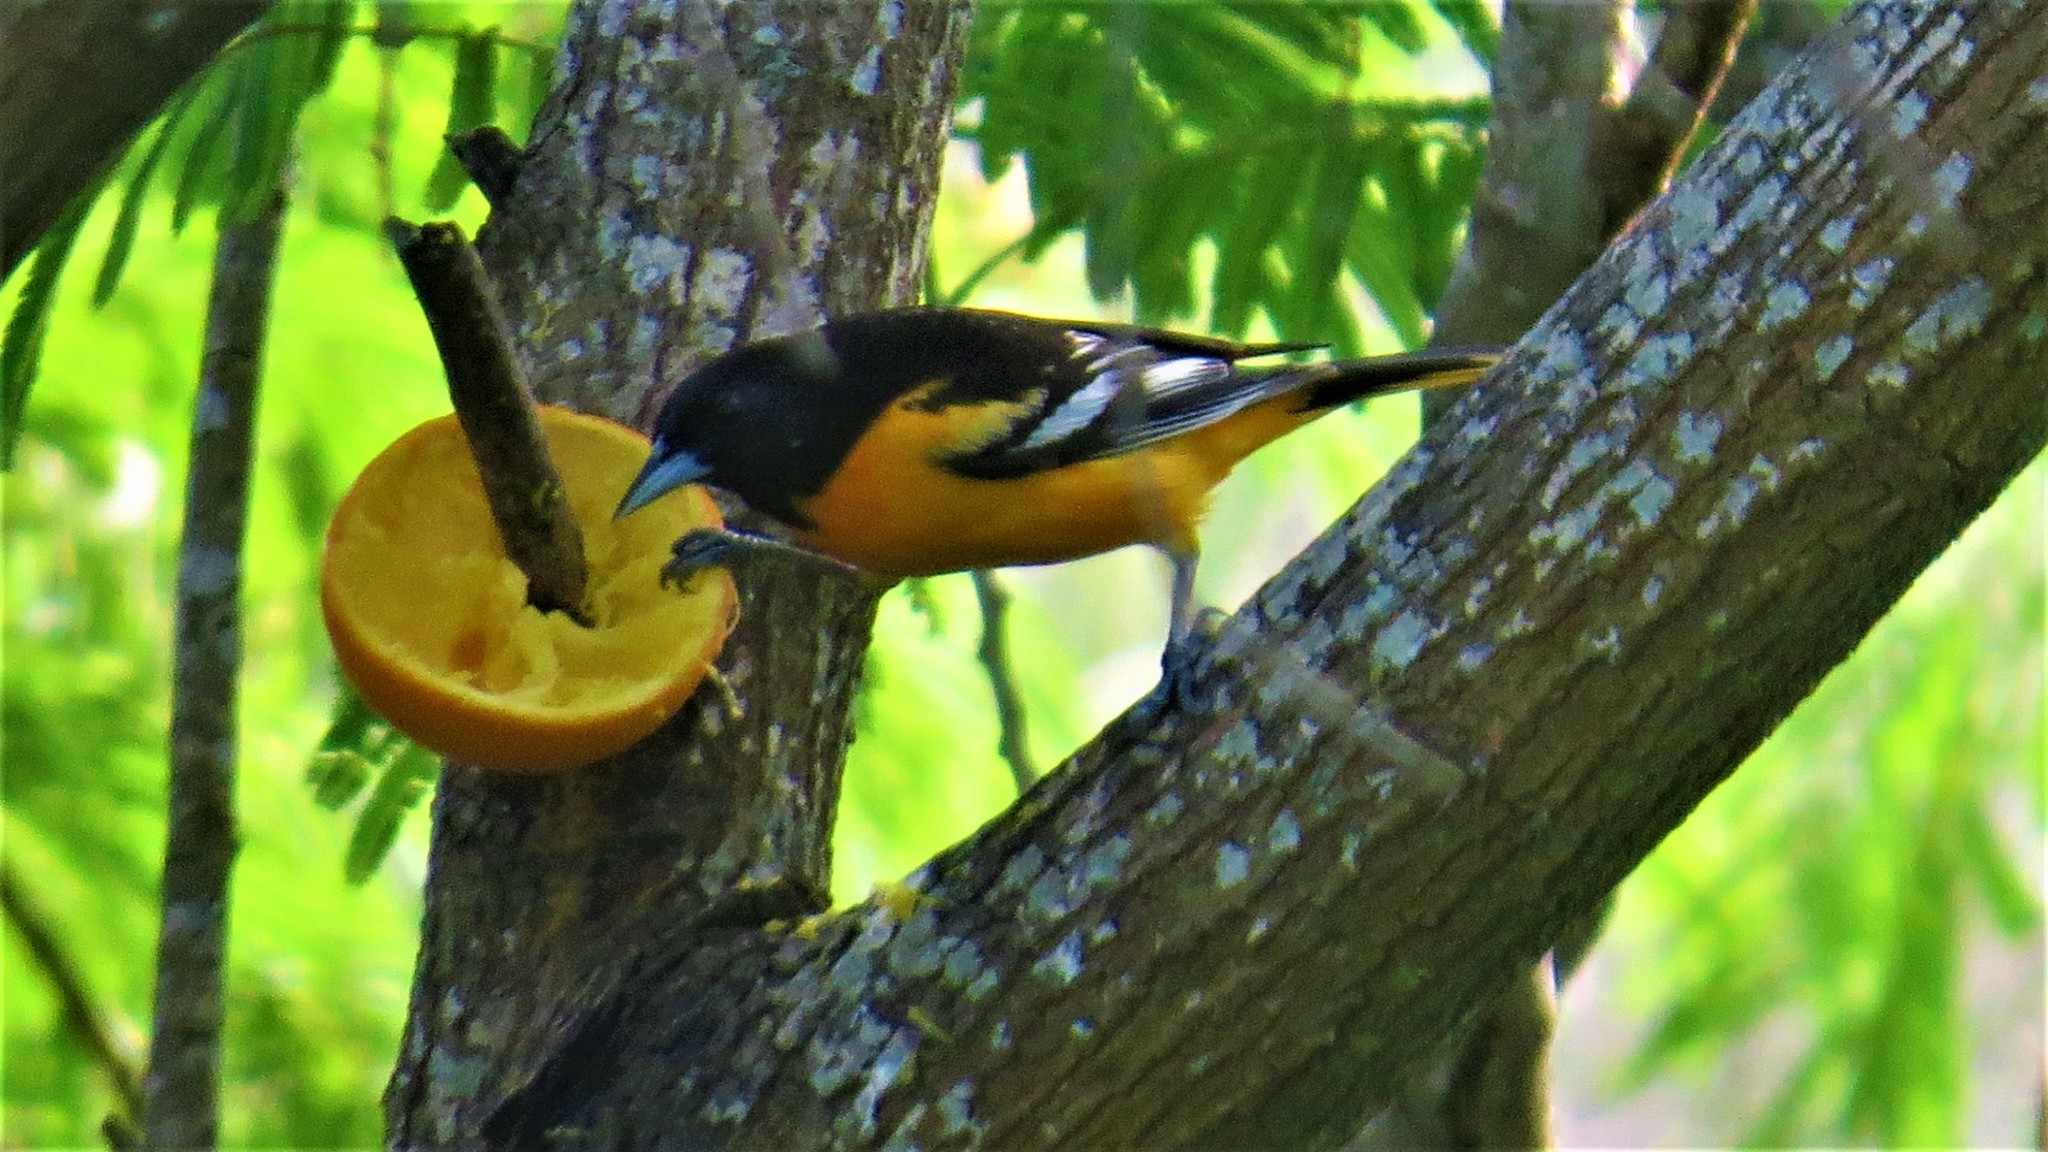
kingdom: Animalia
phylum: Chordata
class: Aves
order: Passeriformes
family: Icteridae
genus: Icterus
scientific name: Icterus galbula
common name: Baltimore oriole
